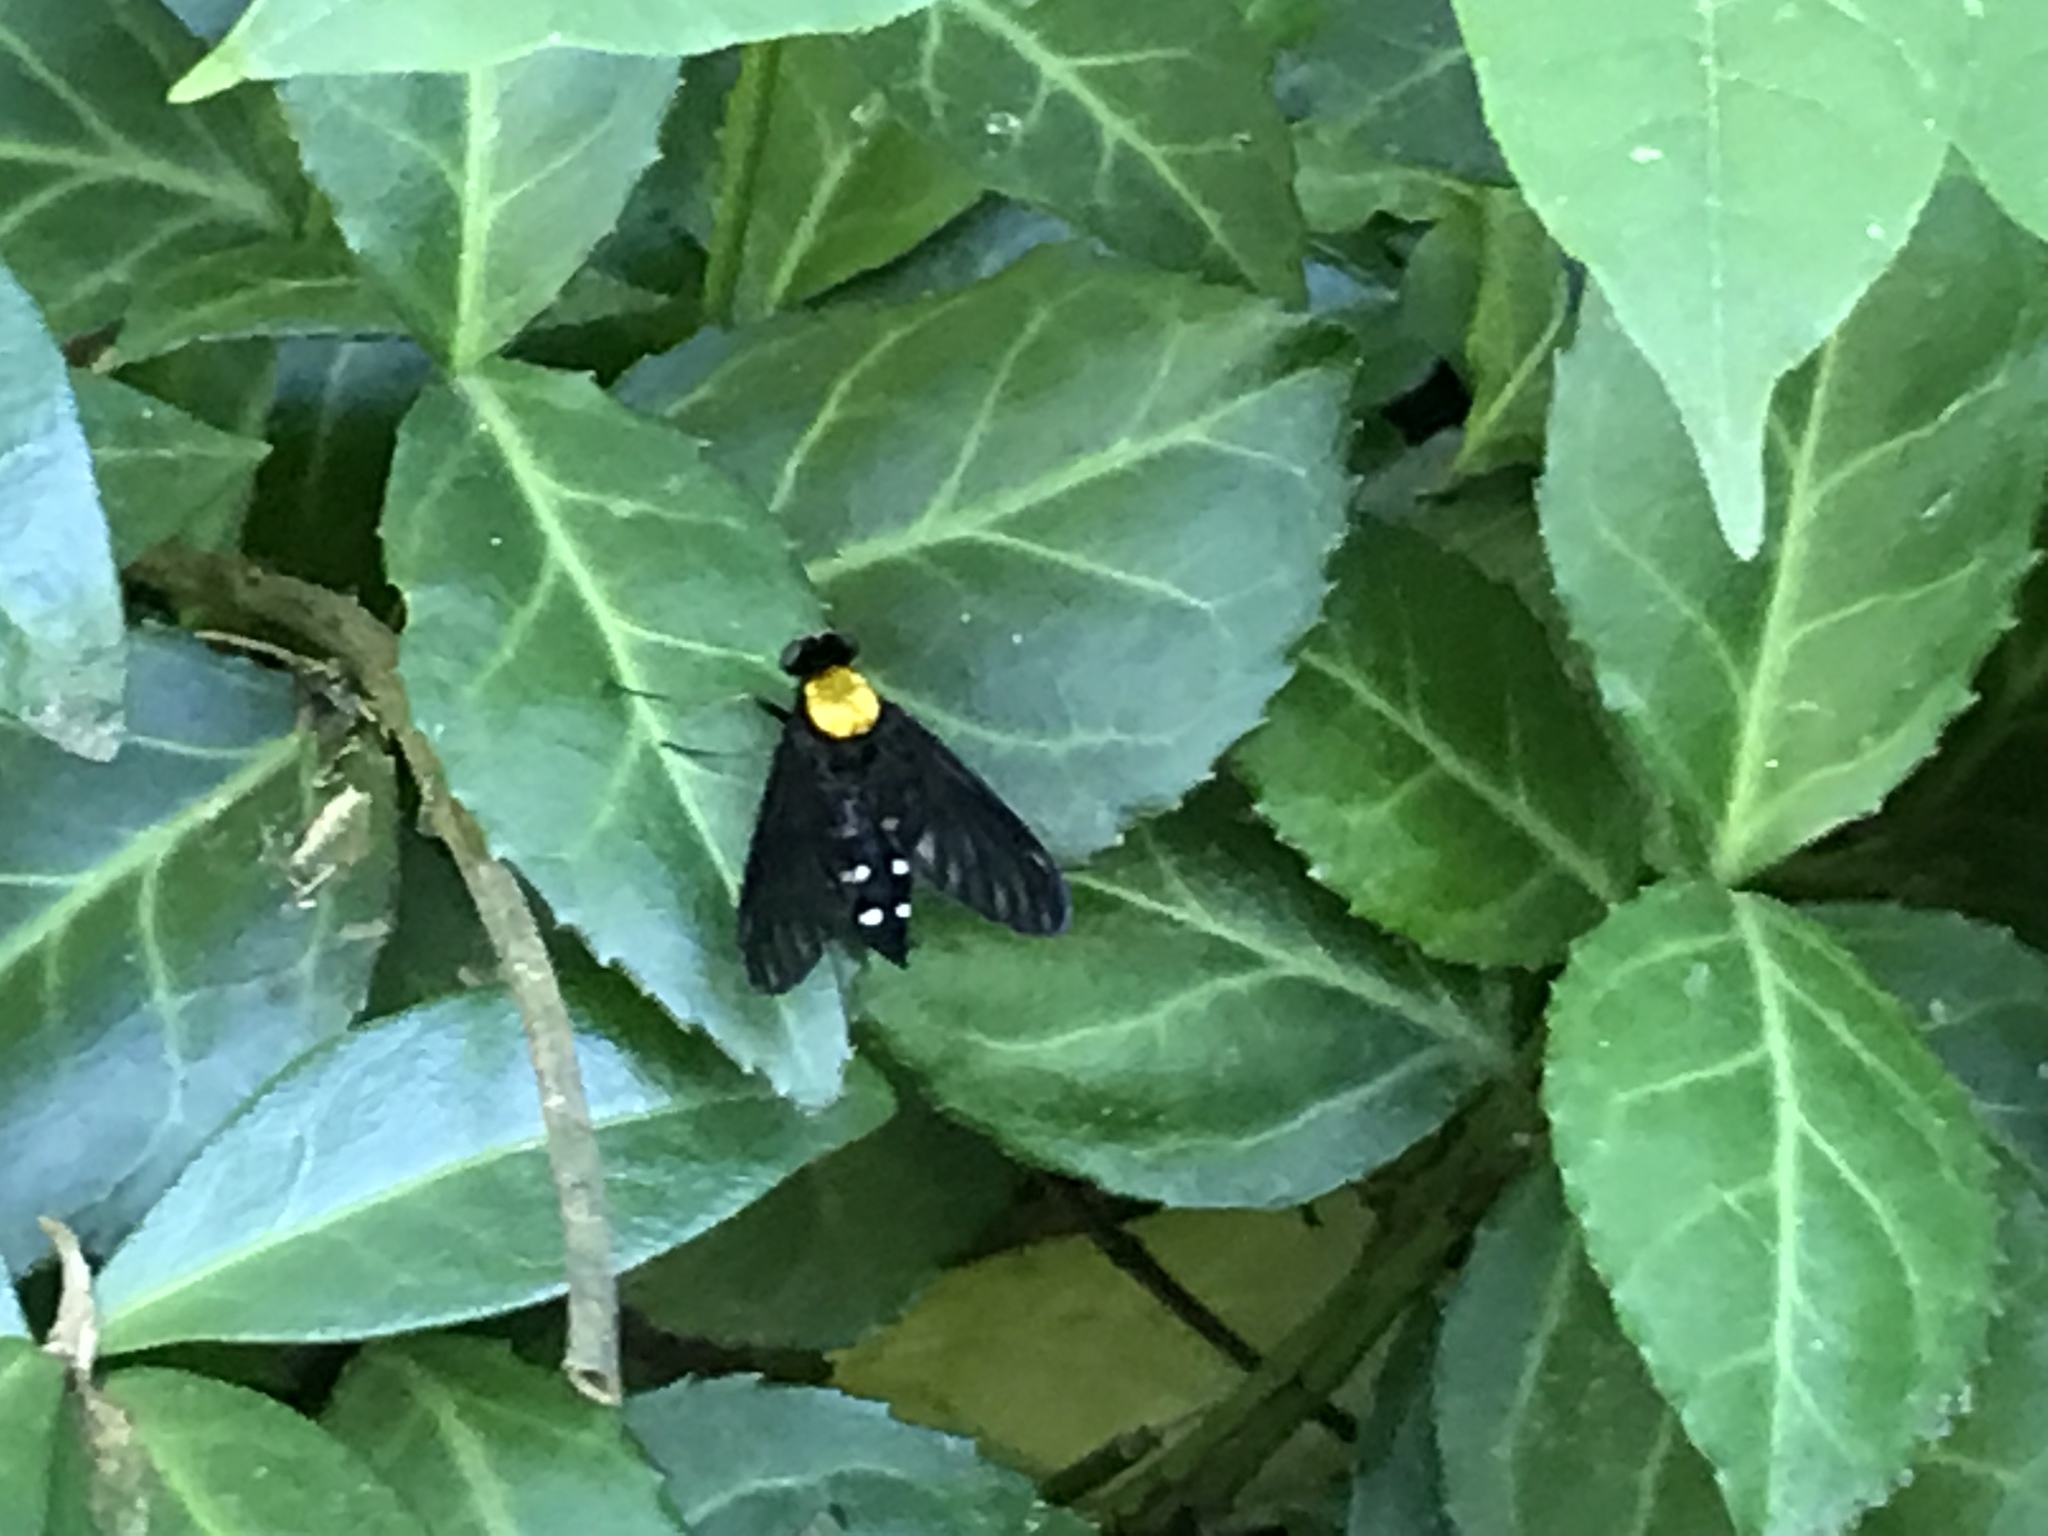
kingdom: Animalia
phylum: Arthropoda
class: Insecta
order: Diptera
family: Rhagionidae
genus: Chrysopilus
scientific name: Chrysopilus thoracicus
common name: Golden-backed snipe fly
